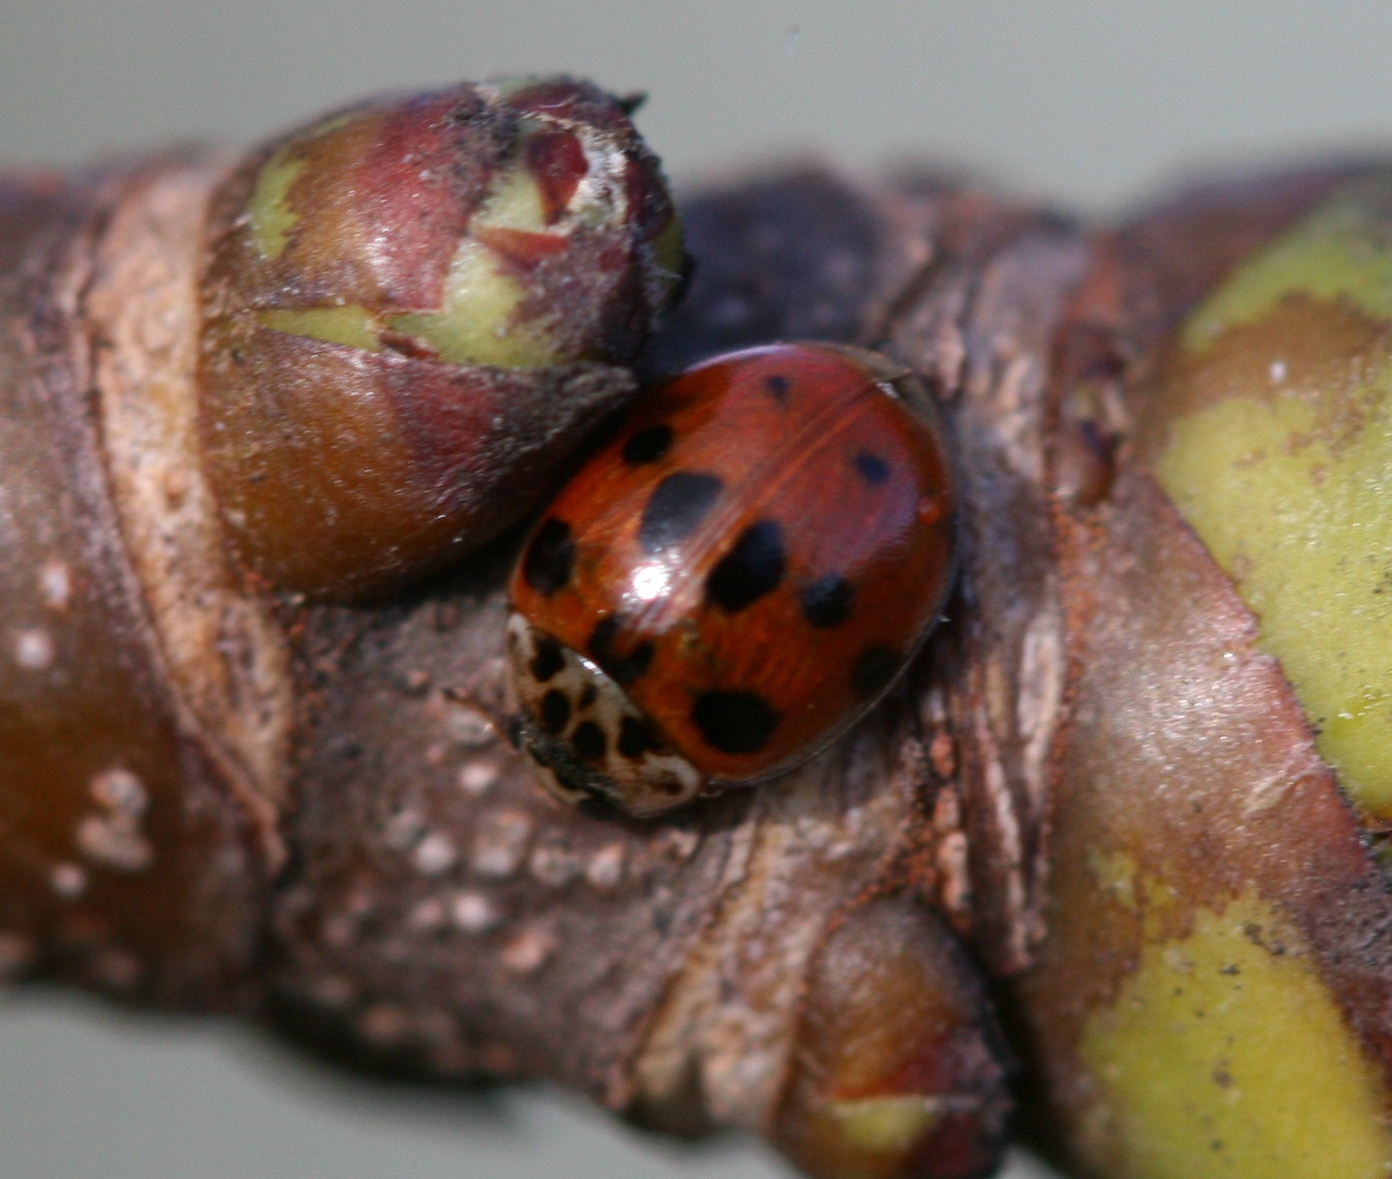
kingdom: Animalia
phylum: Arthropoda
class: Insecta
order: Coleoptera
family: Coccinellidae
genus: Adalia
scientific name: Adalia decempunctata
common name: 10-spot ladybird
